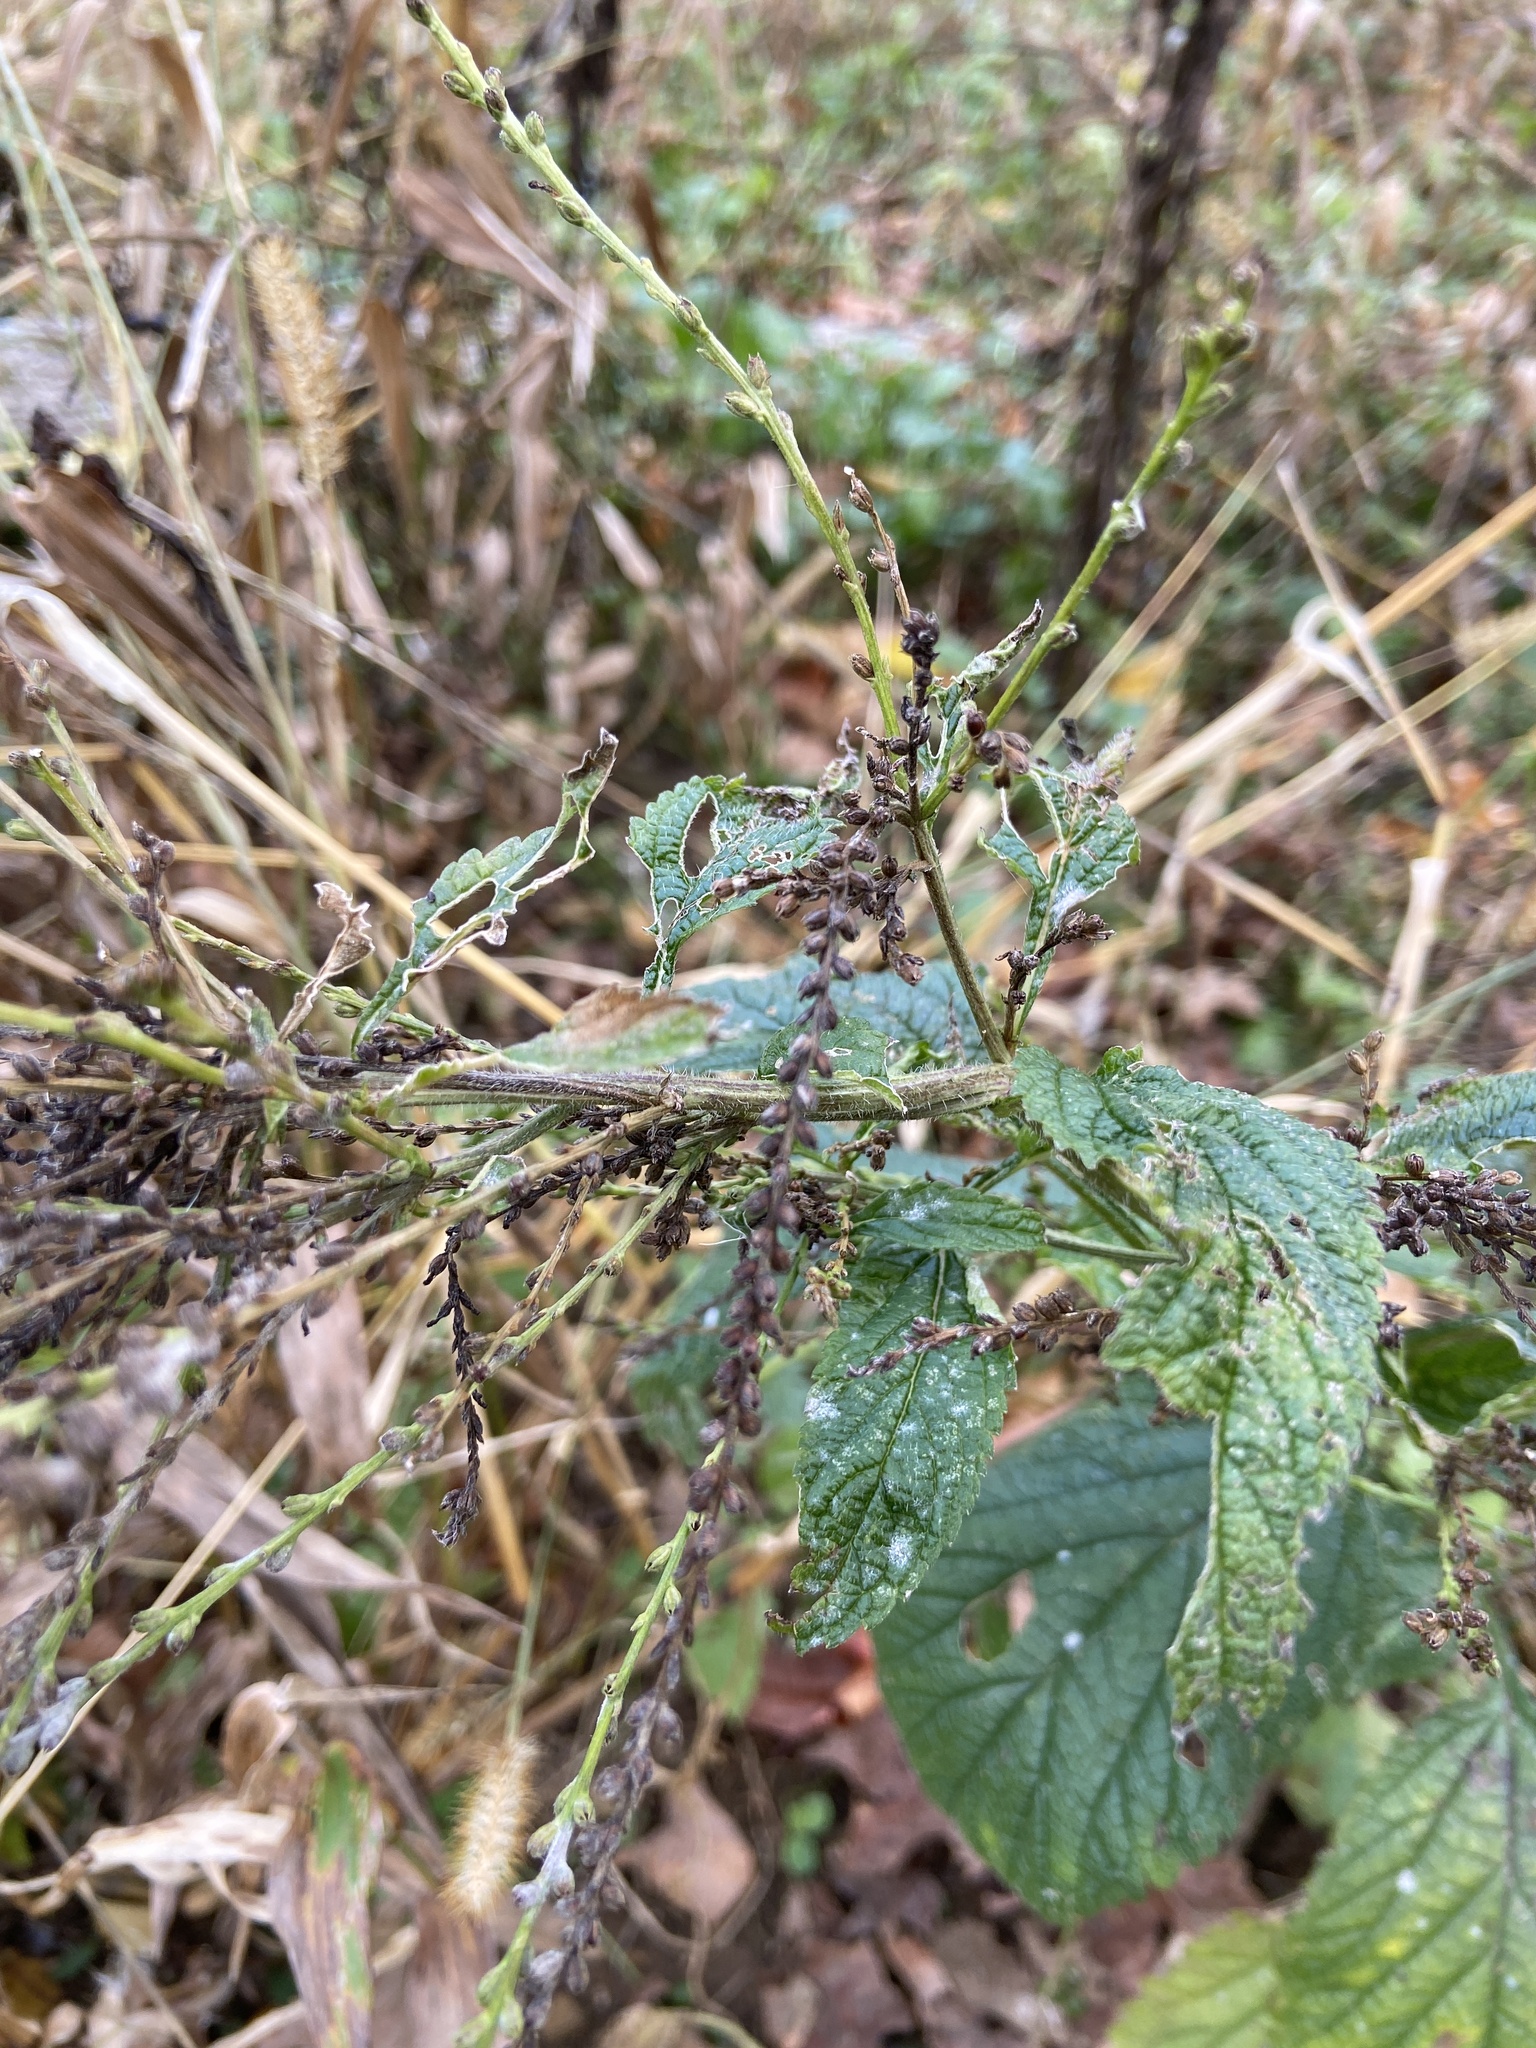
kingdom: Plantae
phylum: Tracheophyta
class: Magnoliopsida
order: Lamiales
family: Verbenaceae
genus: Verbena
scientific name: Verbena urticifolia
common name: Nettle-leaved vervain
